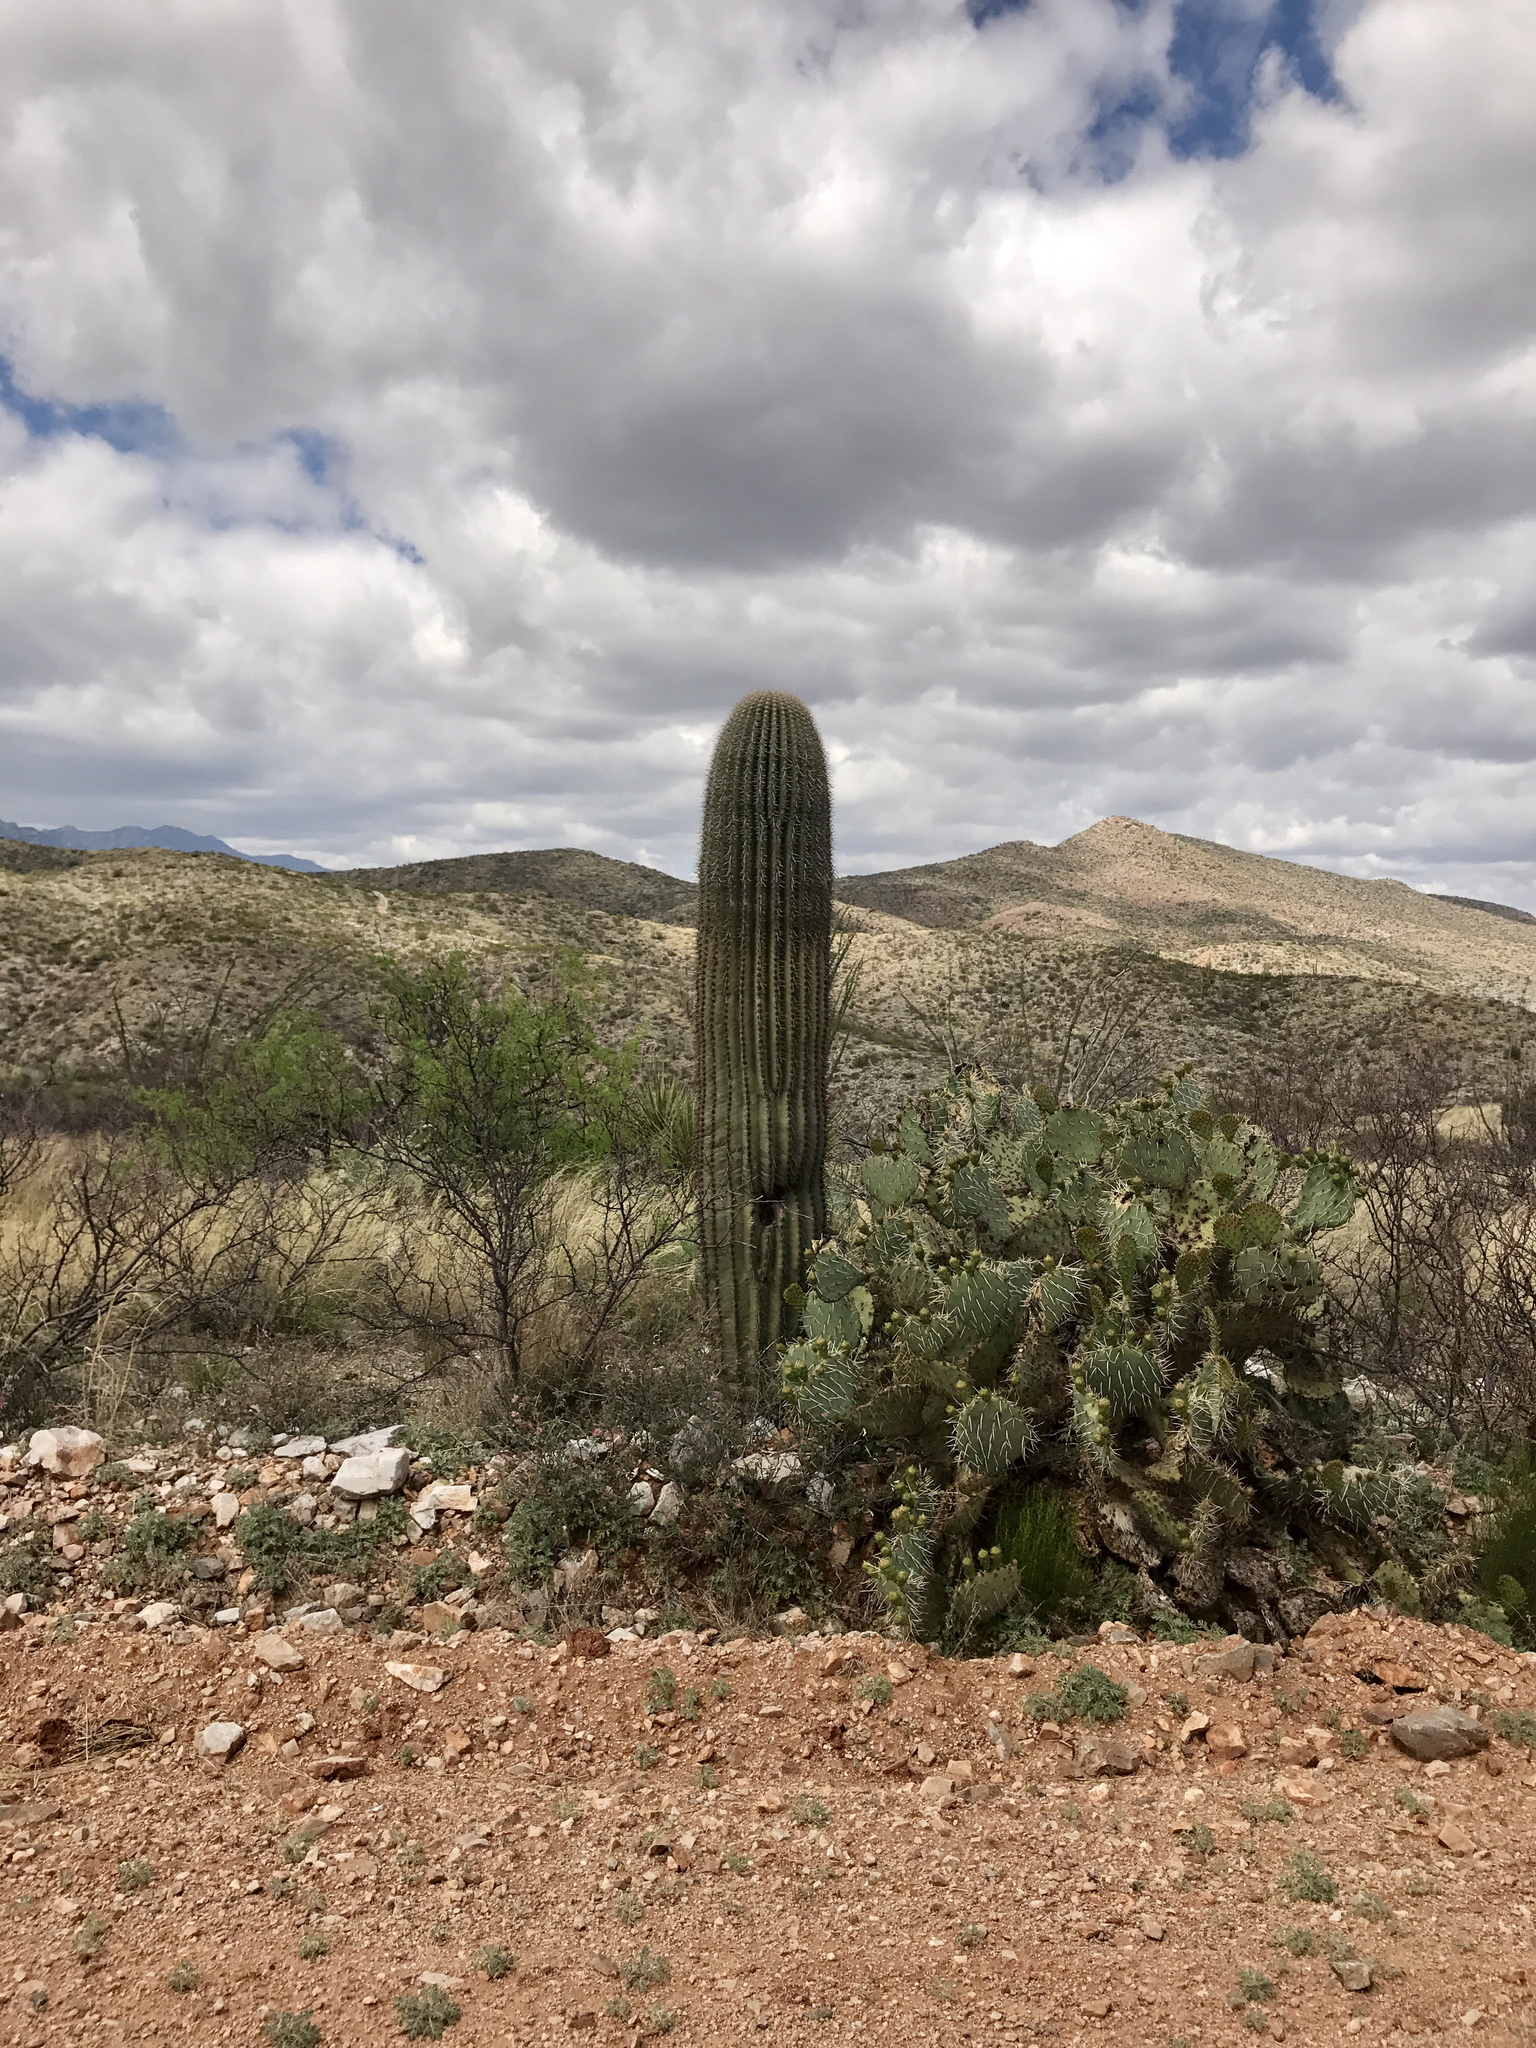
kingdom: Plantae
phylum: Tracheophyta
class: Magnoliopsida
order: Caryophyllales
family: Cactaceae
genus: Carnegiea
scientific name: Carnegiea gigantea
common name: Saguaro
